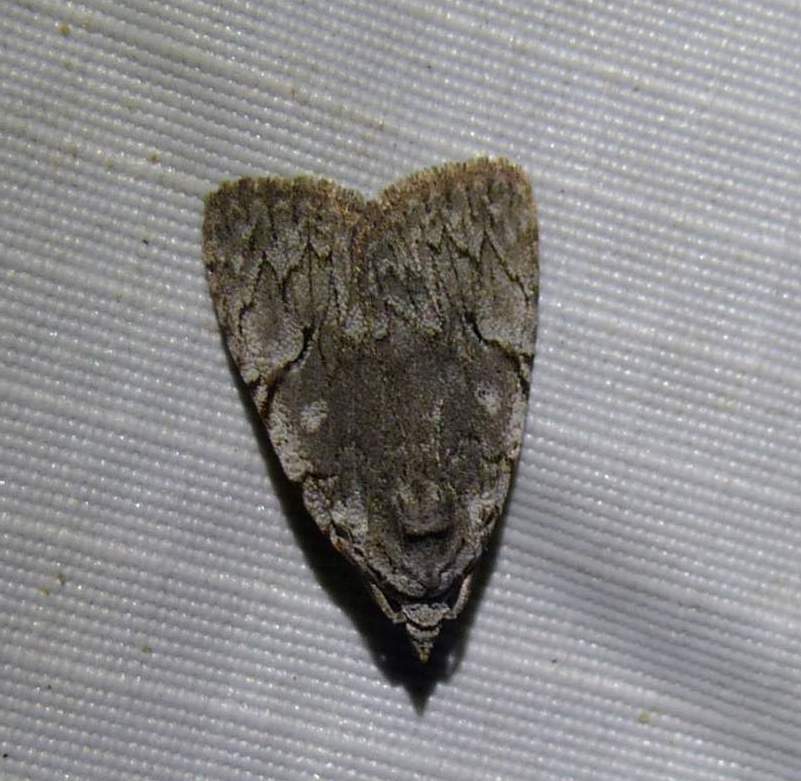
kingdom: Animalia
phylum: Arthropoda
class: Insecta
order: Lepidoptera
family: Noctuidae
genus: Balsa
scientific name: Balsa malana
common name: Many-dotted appleworm moth
